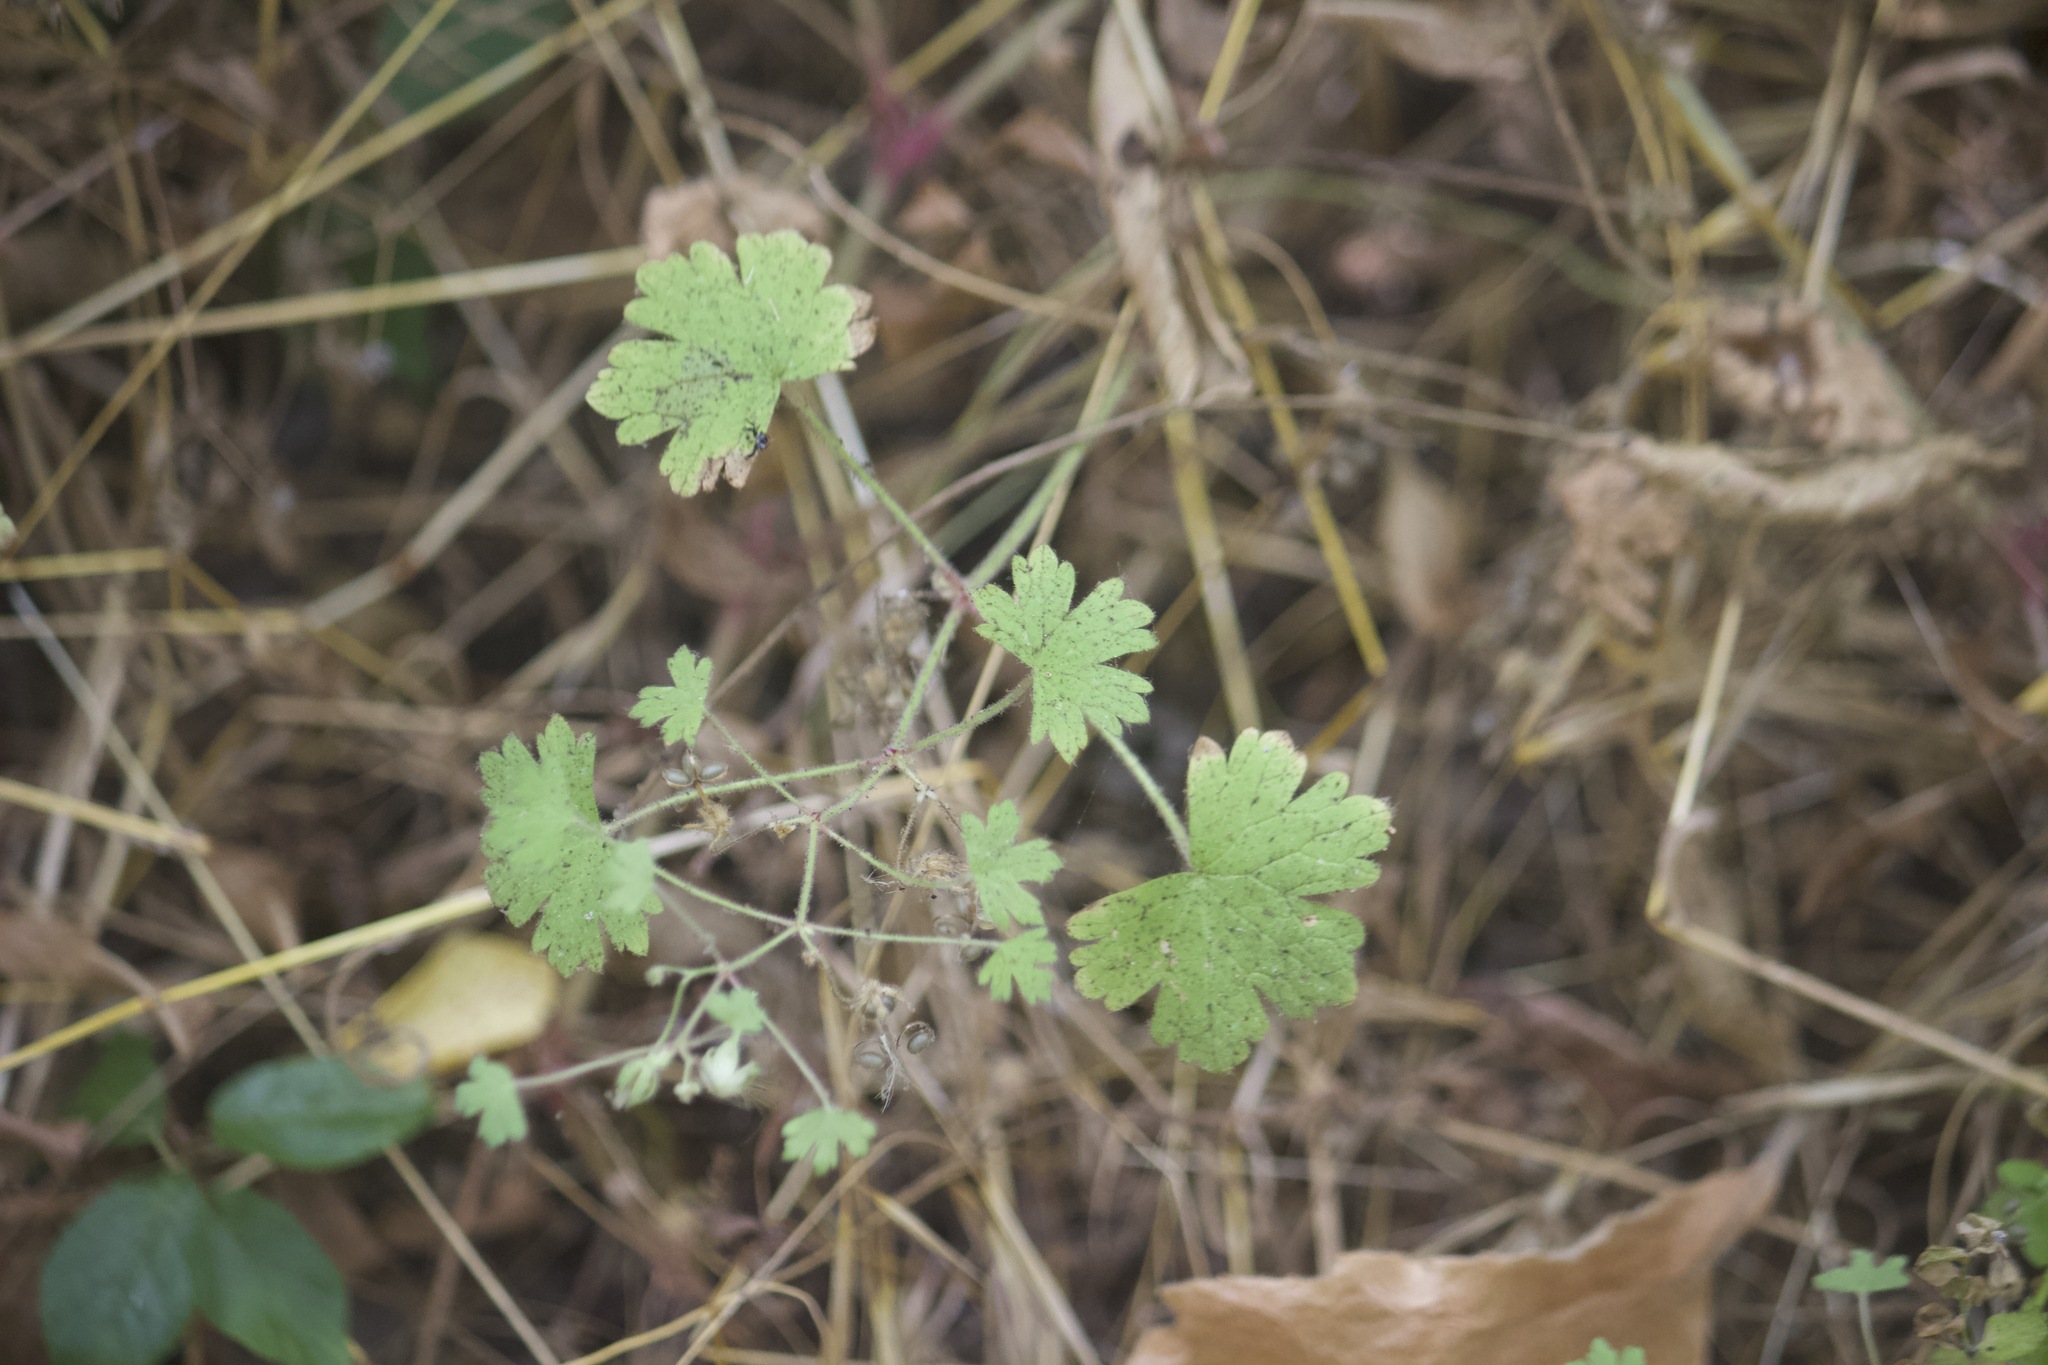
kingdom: Plantae
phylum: Tracheophyta
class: Magnoliopsida
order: Geraniales
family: Geraniaceae
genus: Geranium
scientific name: Geranium rotundifolium
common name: Round-leaved crane's-bill
